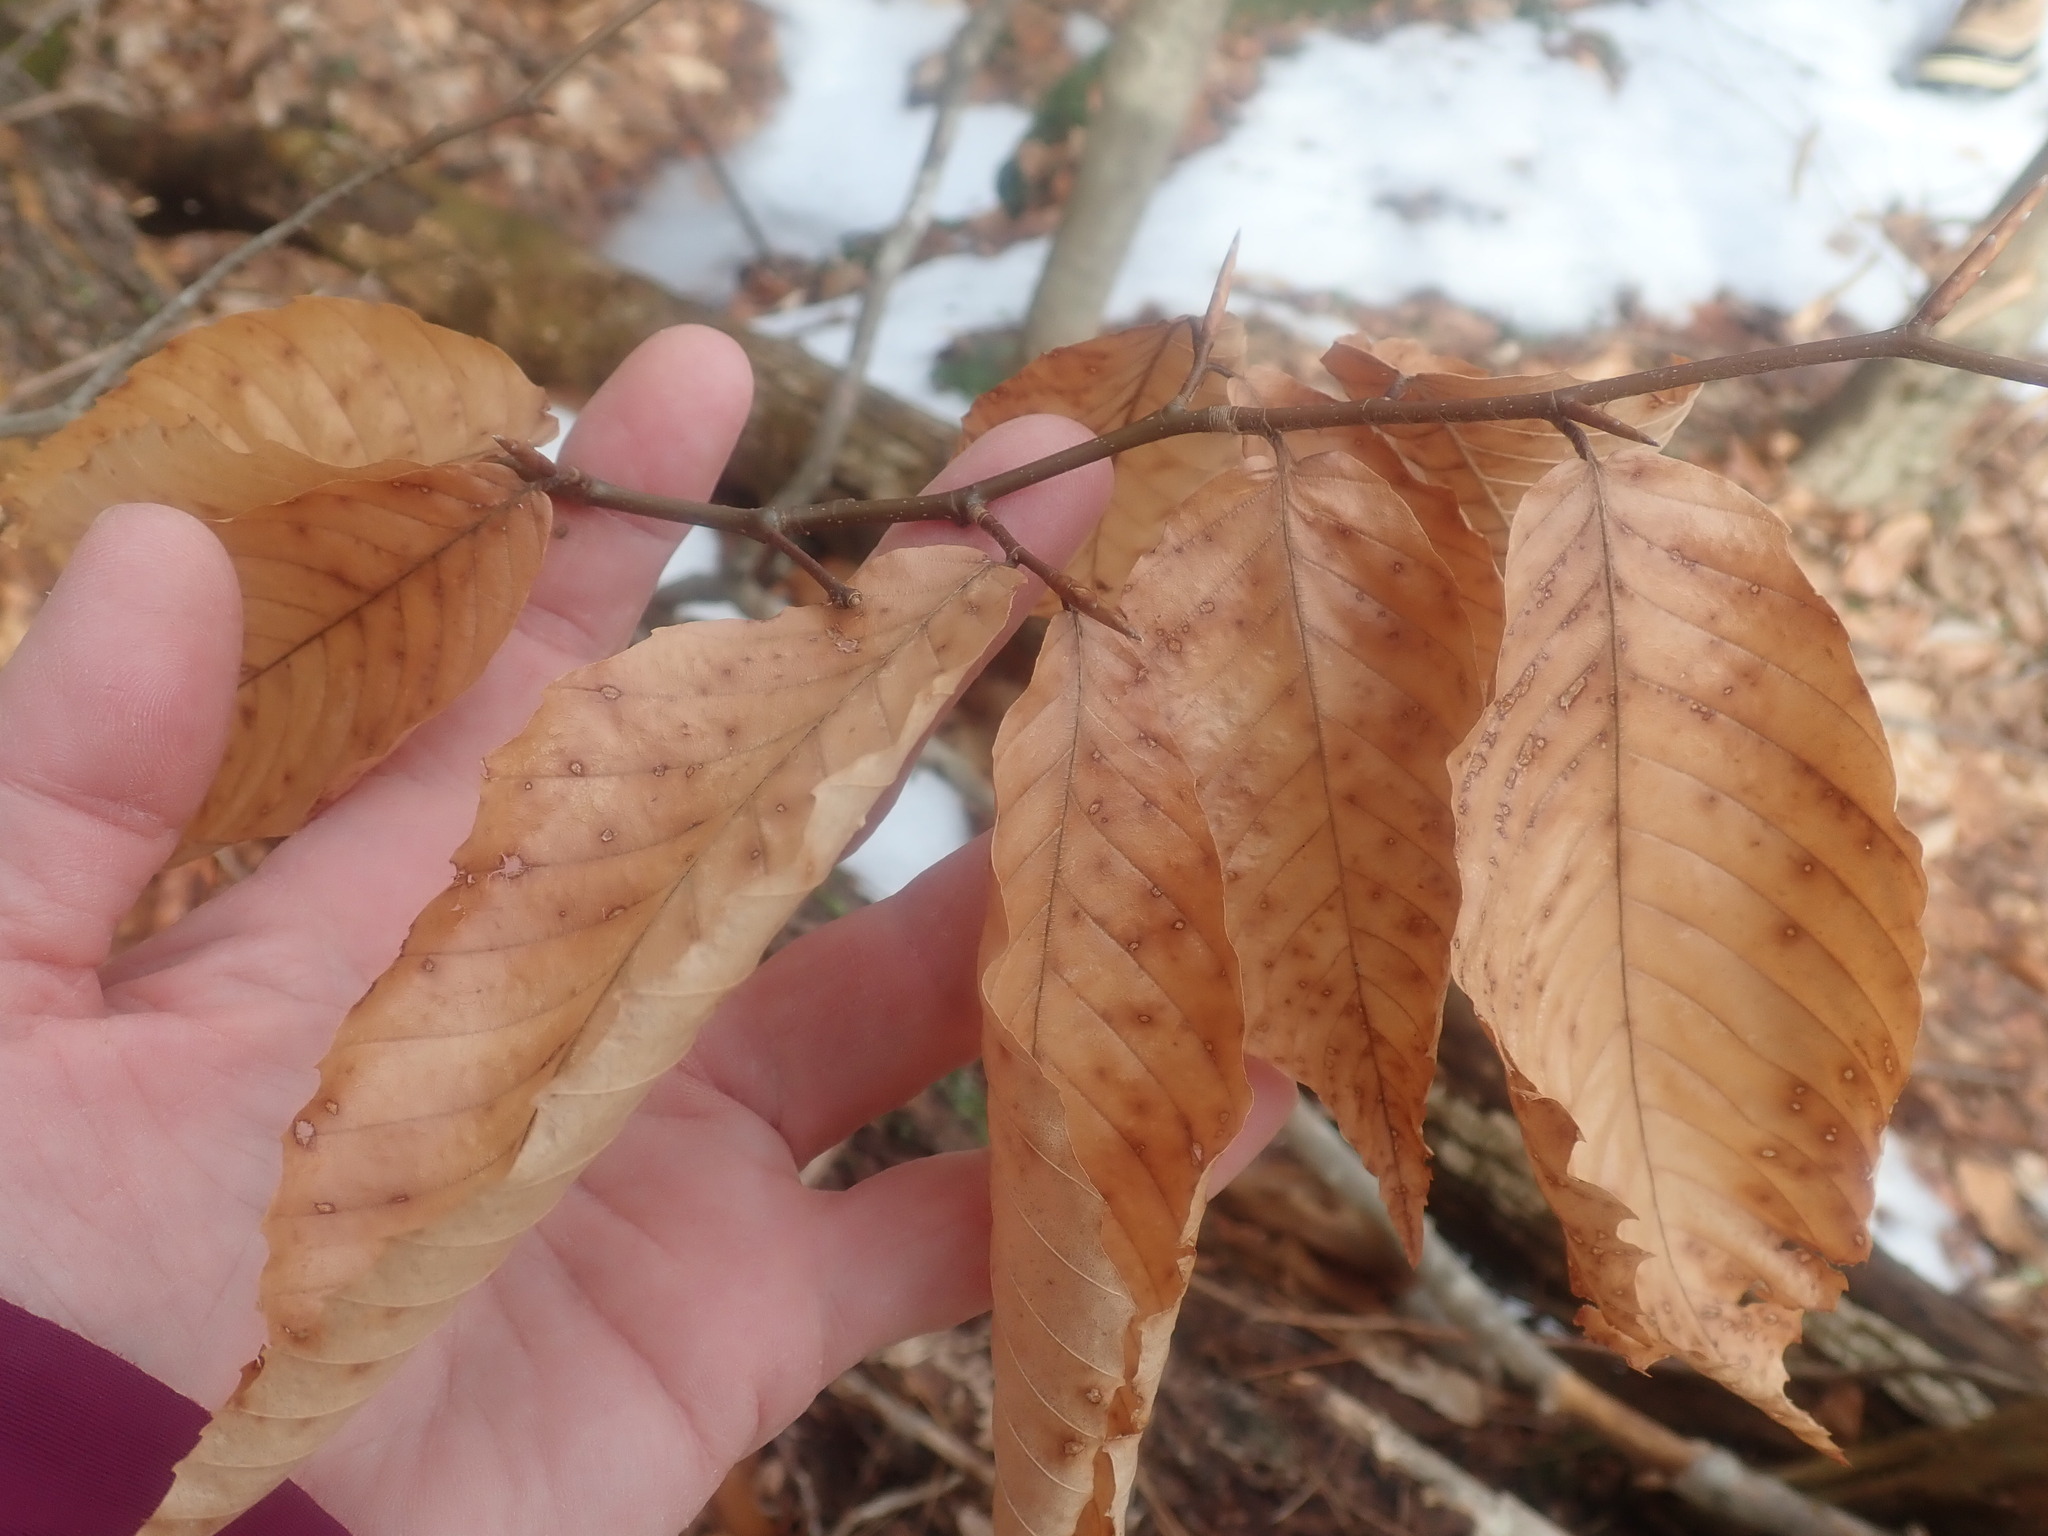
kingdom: Plantae
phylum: Tracheophyta
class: Magnoliopsida
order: Fagales
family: Fagaceae
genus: Fagus
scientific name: Fagus grandifolia
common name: American beech
